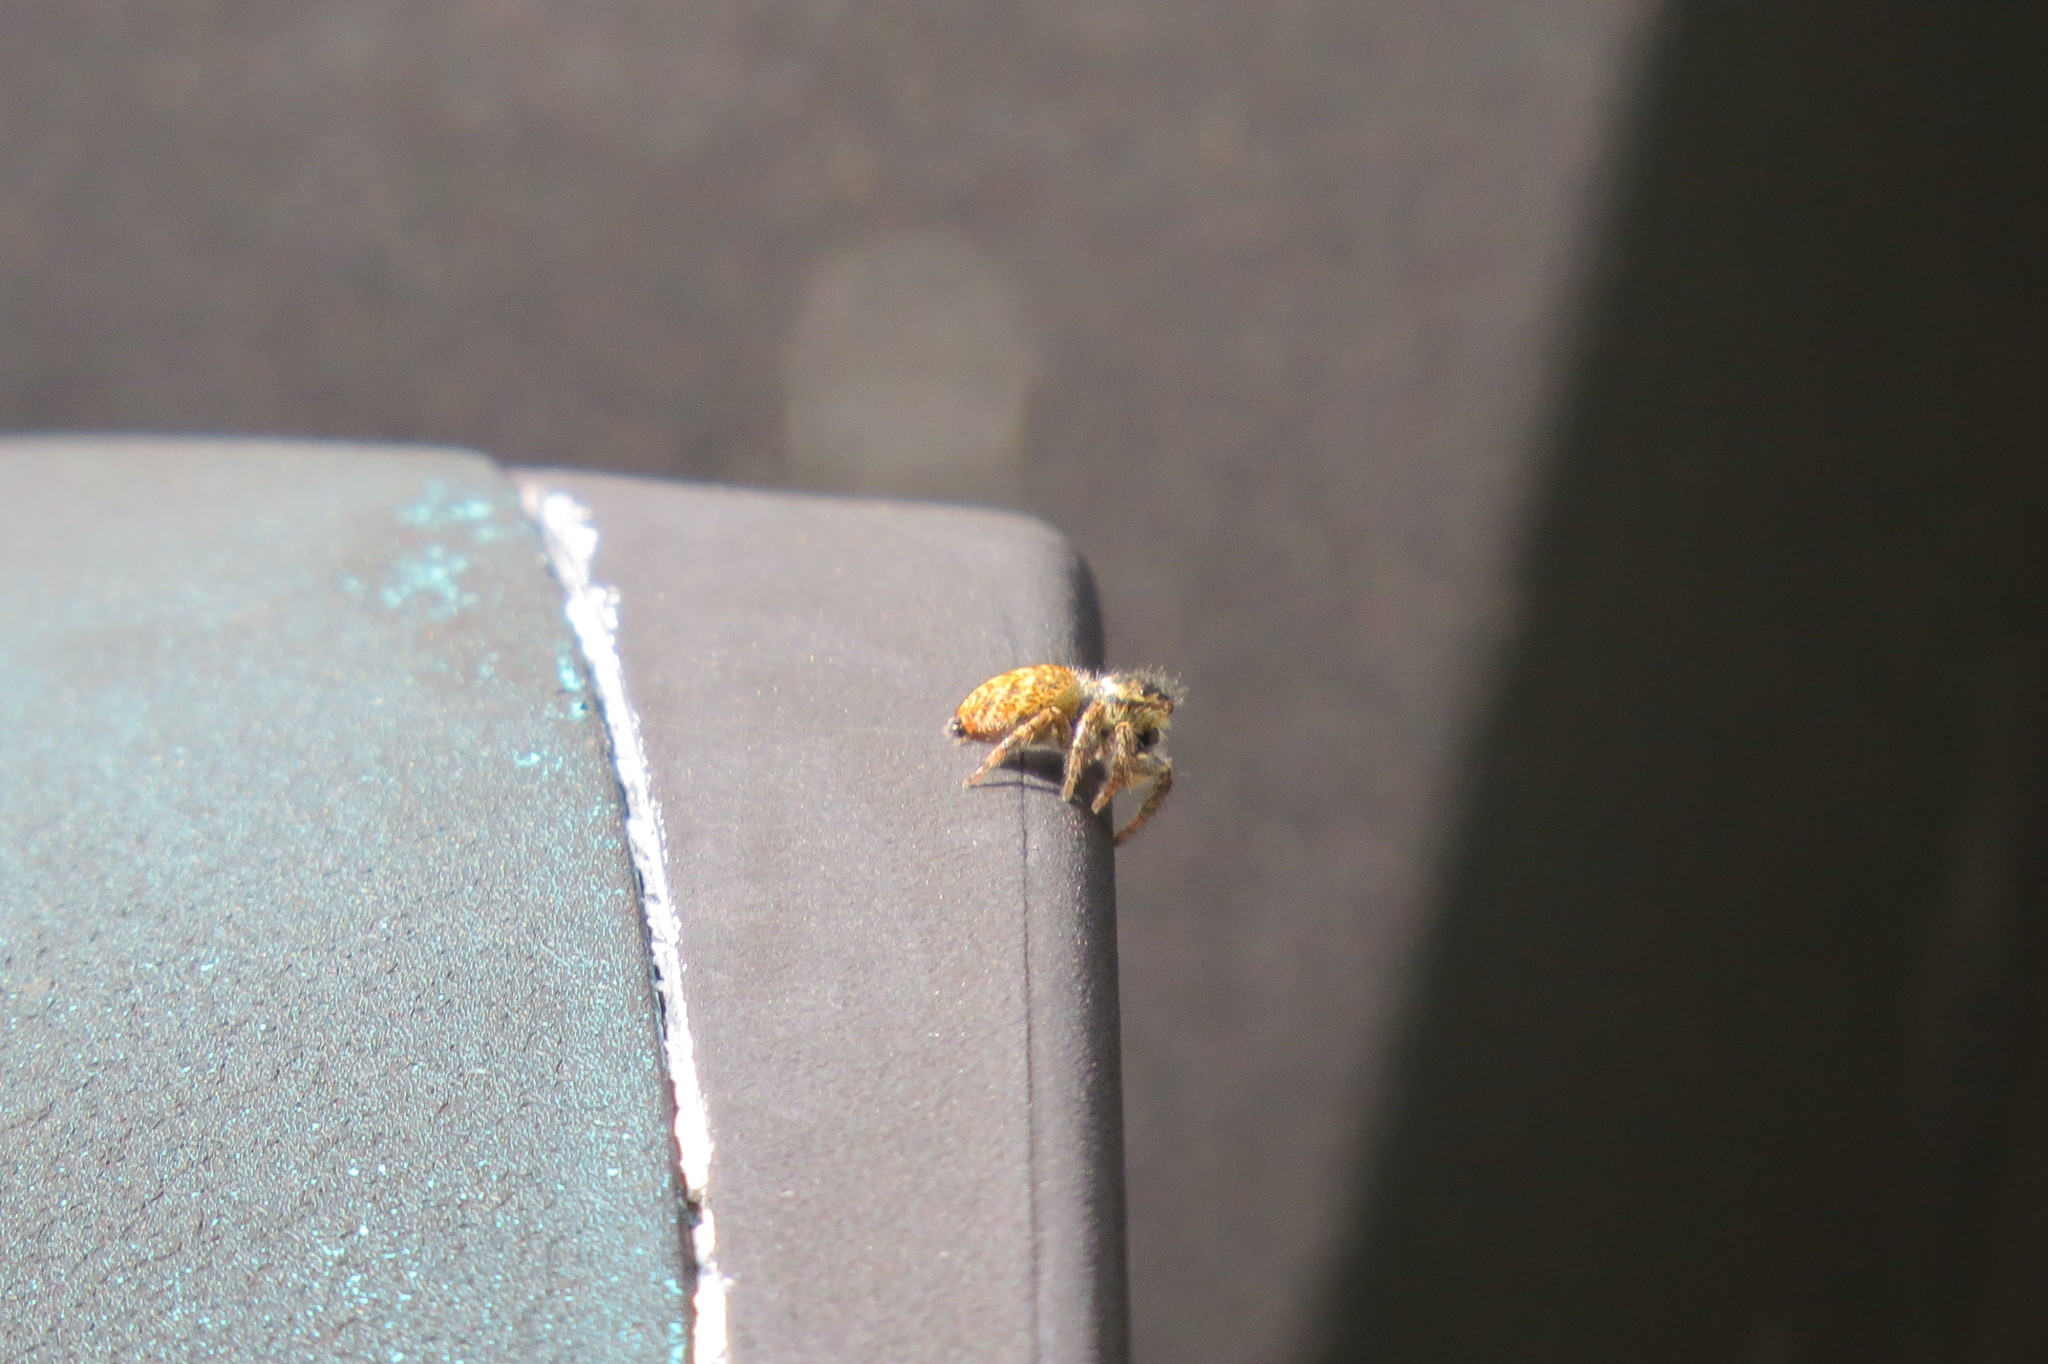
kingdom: Animalia
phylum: Arthropoda
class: Arachnida
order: Araneae
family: Salticidae
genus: Carrhotus
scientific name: Carrhotus xanthogramma
